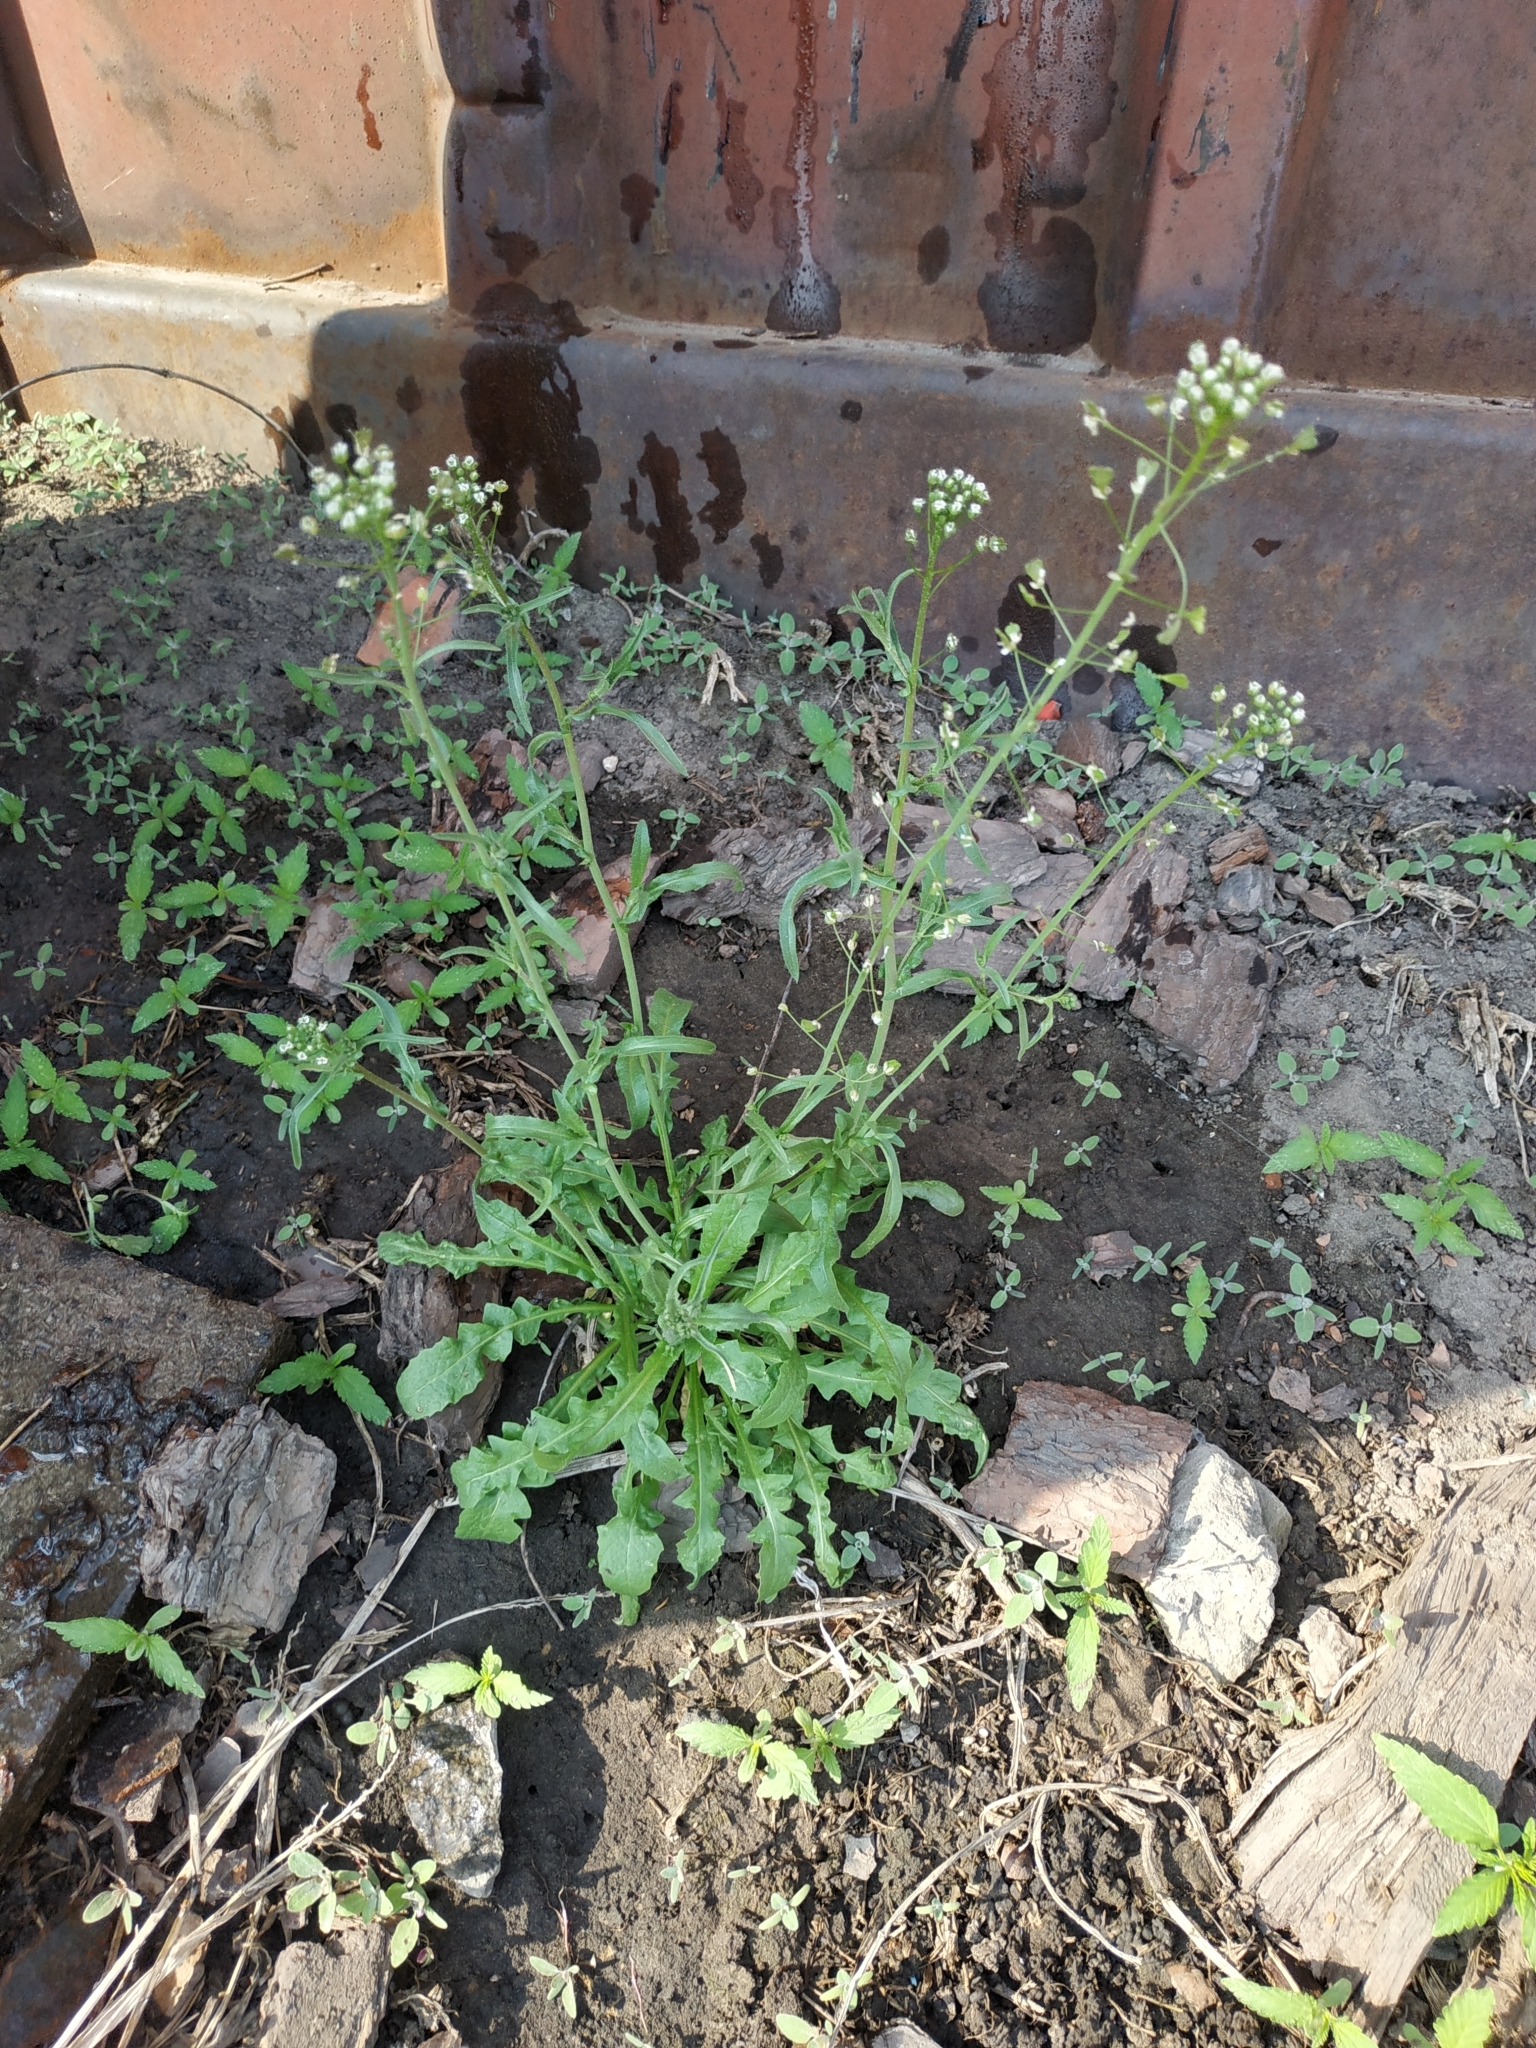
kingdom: Plantae
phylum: Tracheophyta
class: Magnoliopsida
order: Brassicales
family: Brassicaceae
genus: Capsella
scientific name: Capsella bursa-pastoris
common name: Shepherd's purse
